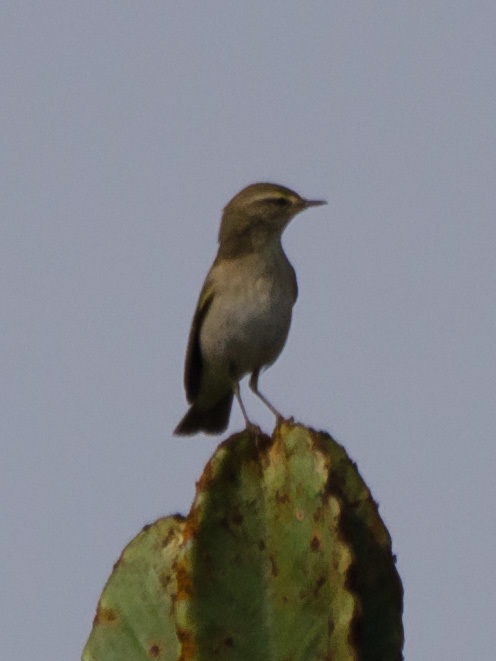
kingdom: Animalia
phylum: Chordata
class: Aves
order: Passeriformes
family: Phylloscopidae
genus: Phylloscopus
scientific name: Phylloscopus trochilus
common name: Willow warbler
